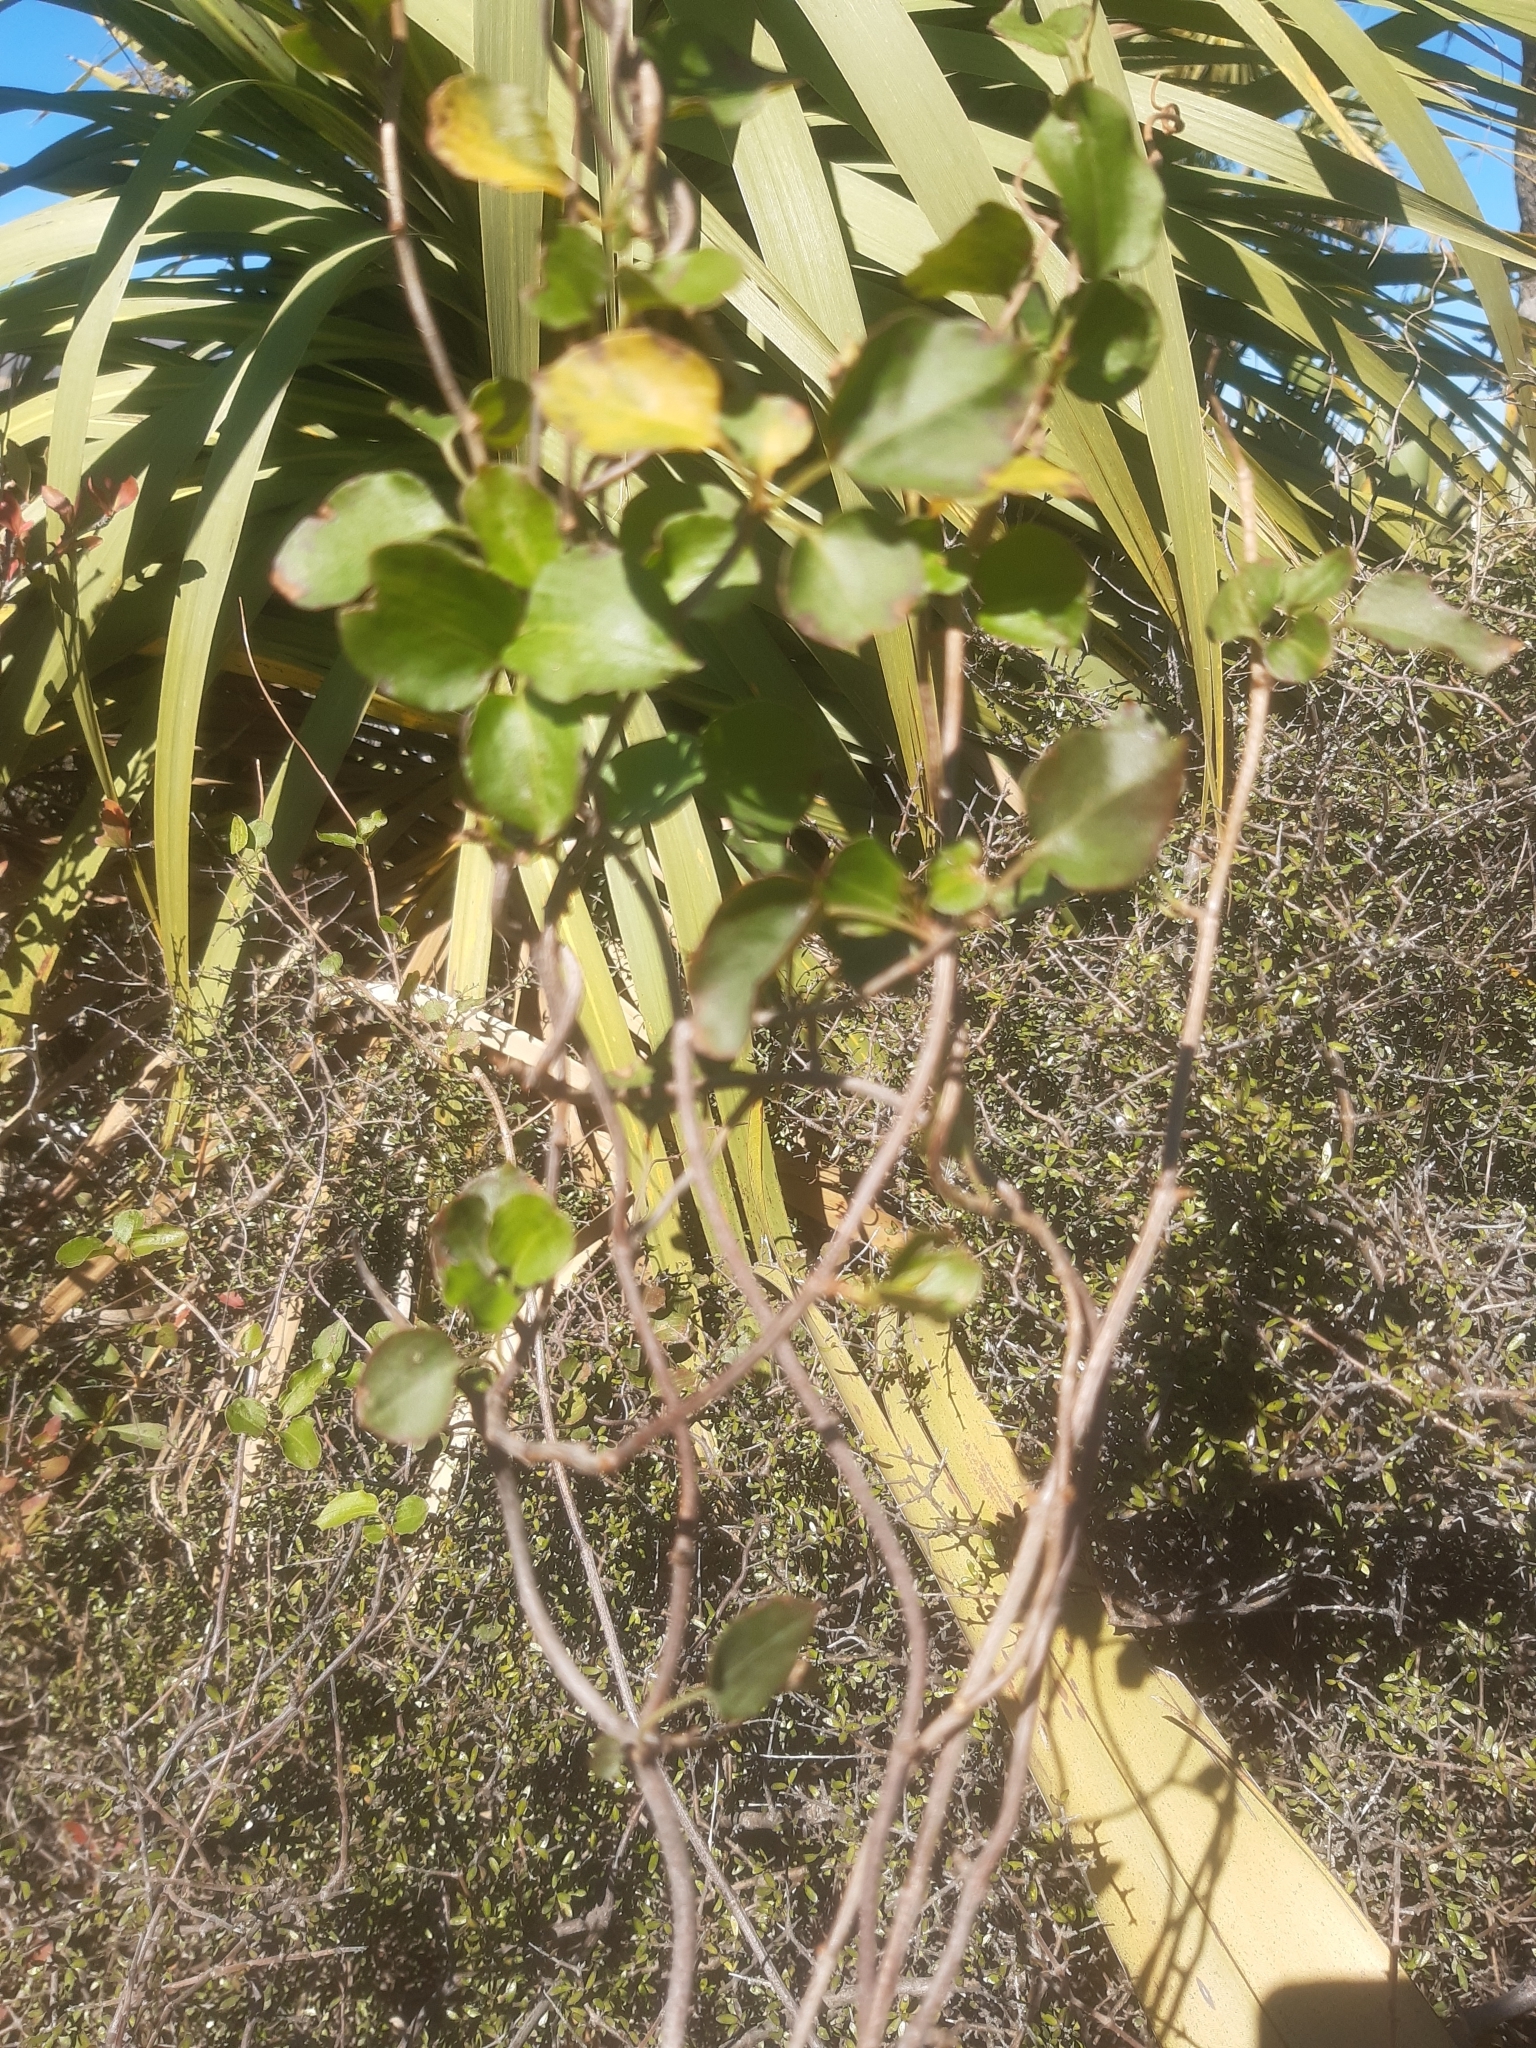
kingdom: Plantae
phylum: Tracheophyta
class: Magnoliopsida
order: Caryophyllales
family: Polygonaceae
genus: Muehlenbeckia
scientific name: Muehlenbeckia australis
